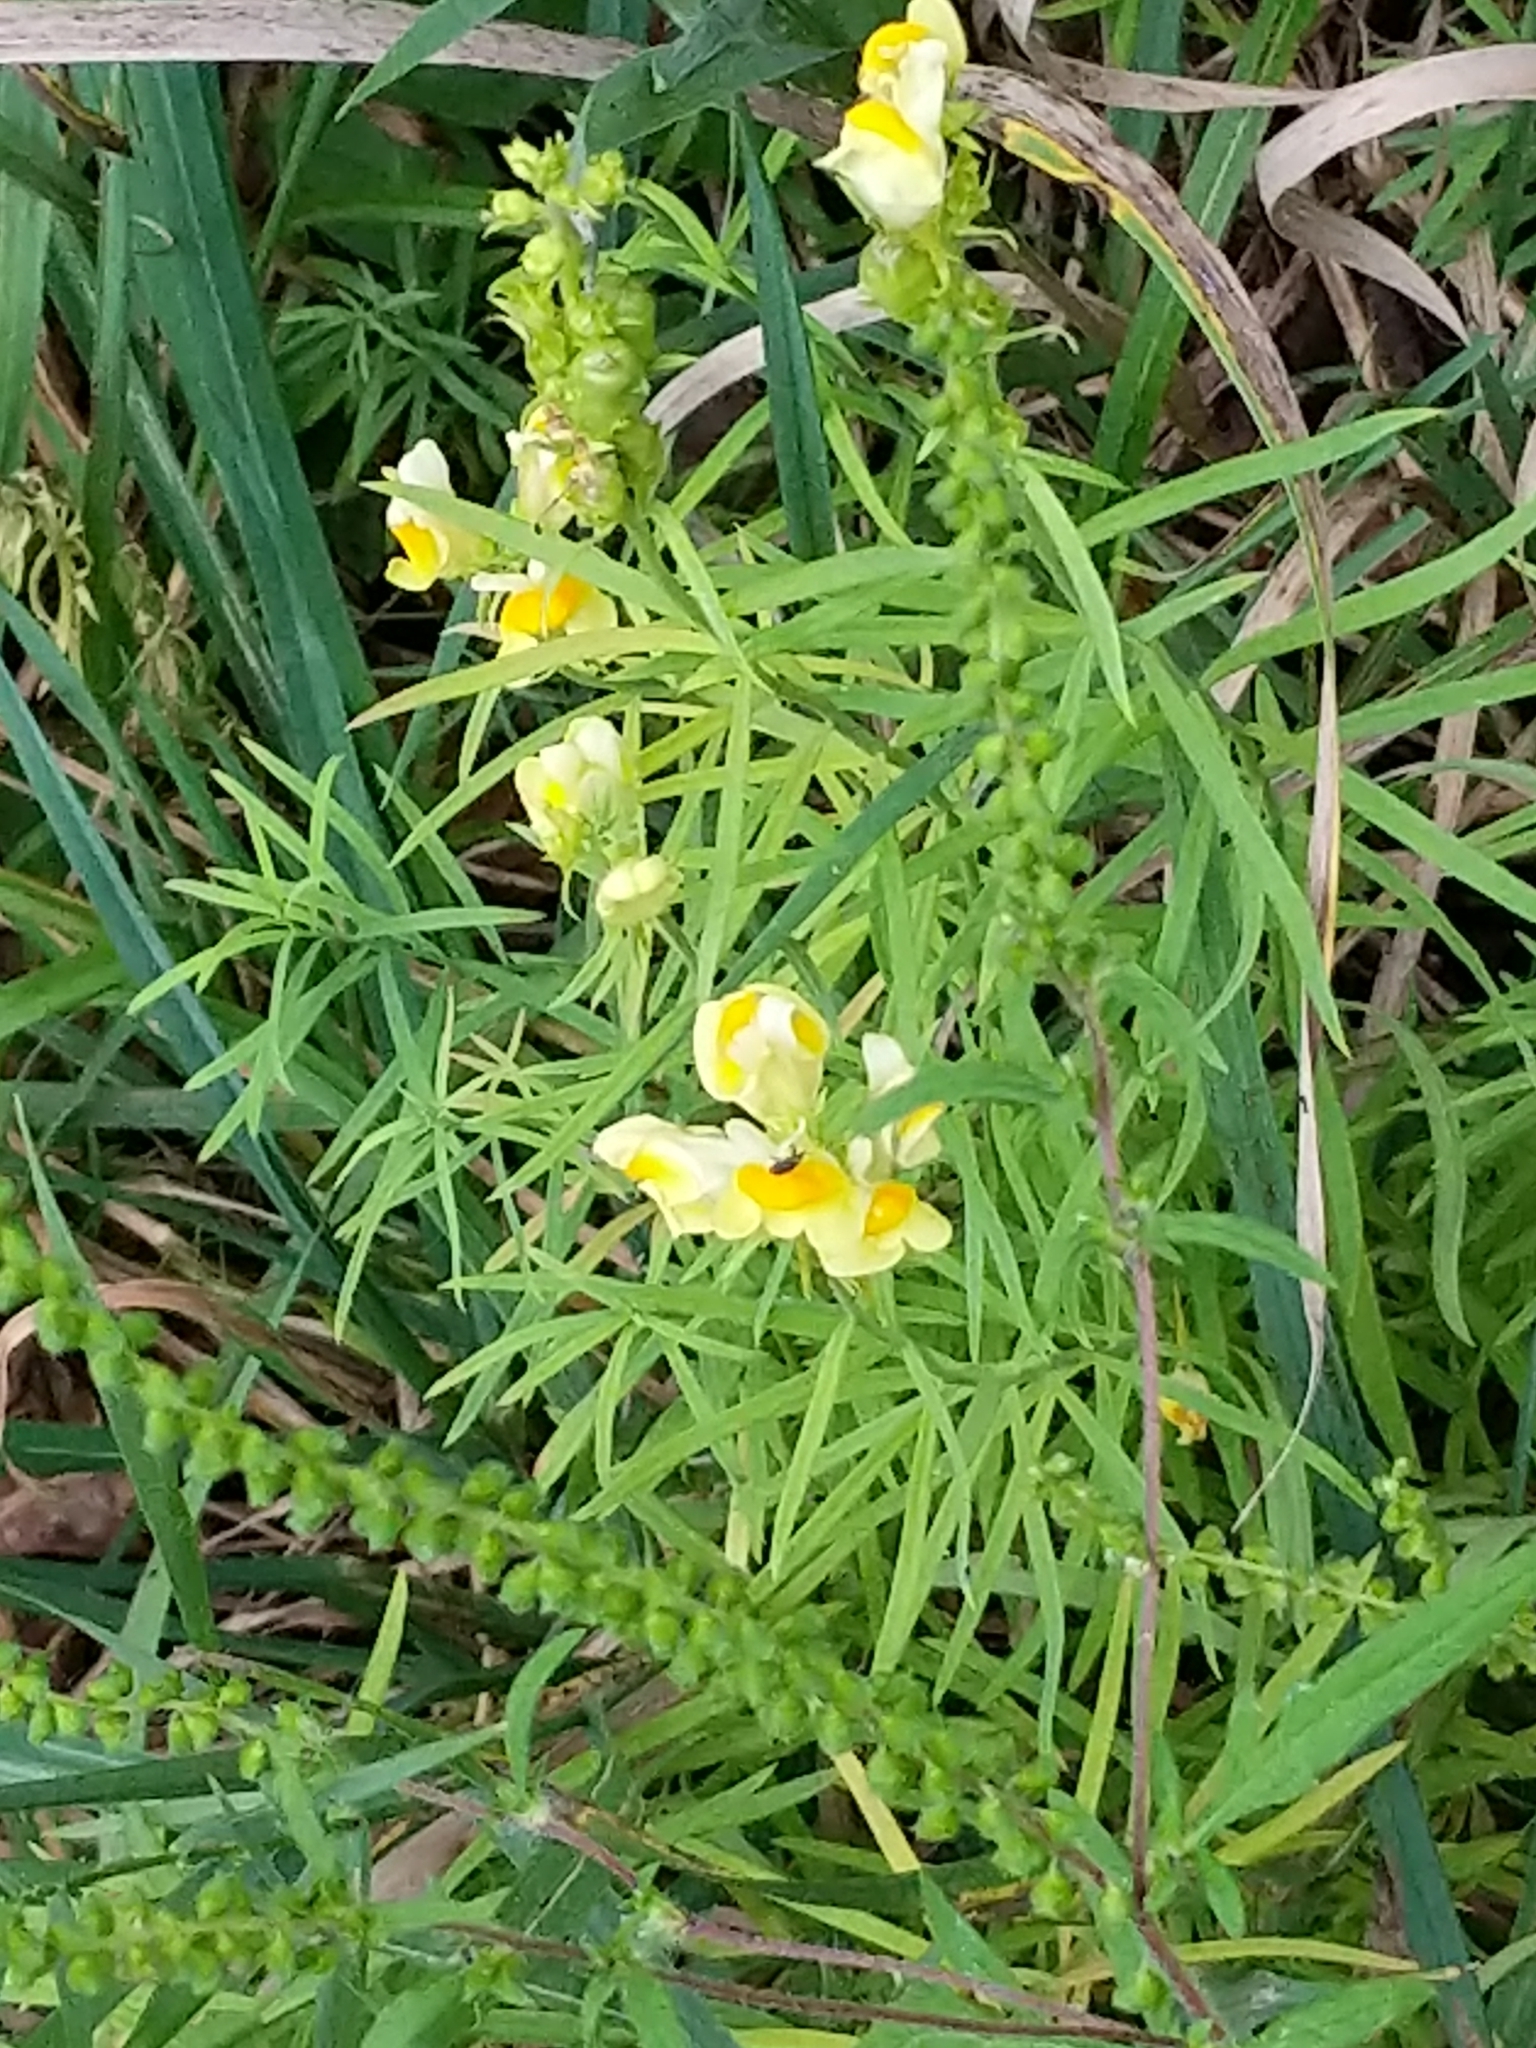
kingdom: Plantae
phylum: Tracheophyta
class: Magnoliopsida
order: Lamiales
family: Plantaginaceae
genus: Linaria
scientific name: Linaria vulgaris
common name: Butter and eggs
